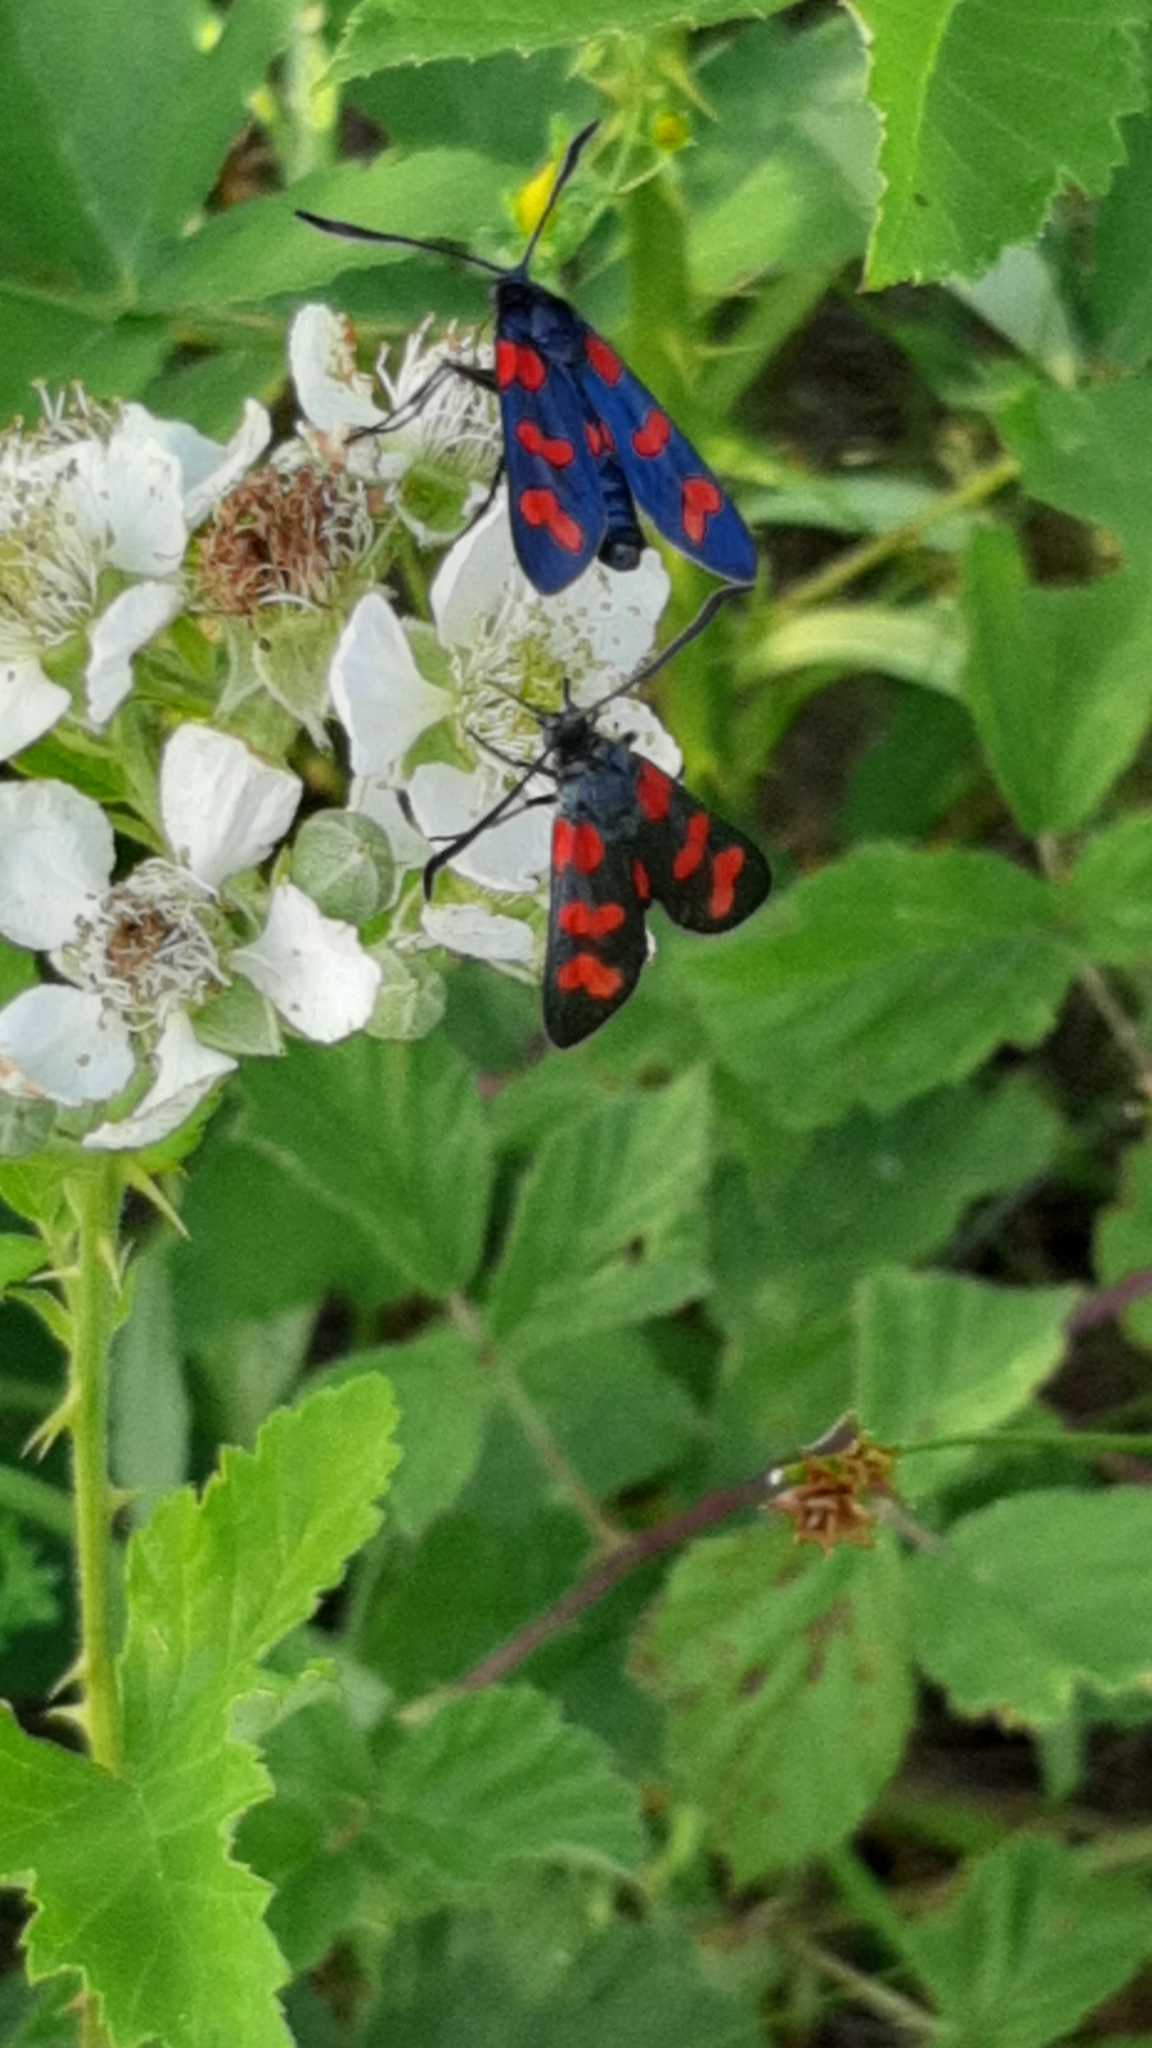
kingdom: Animalia
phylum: Arthropoda
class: Insecta
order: Lepidoptera
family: Zygaenidae
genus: Zygaena
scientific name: Zygaena filipendulae
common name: Six-spot burnet
